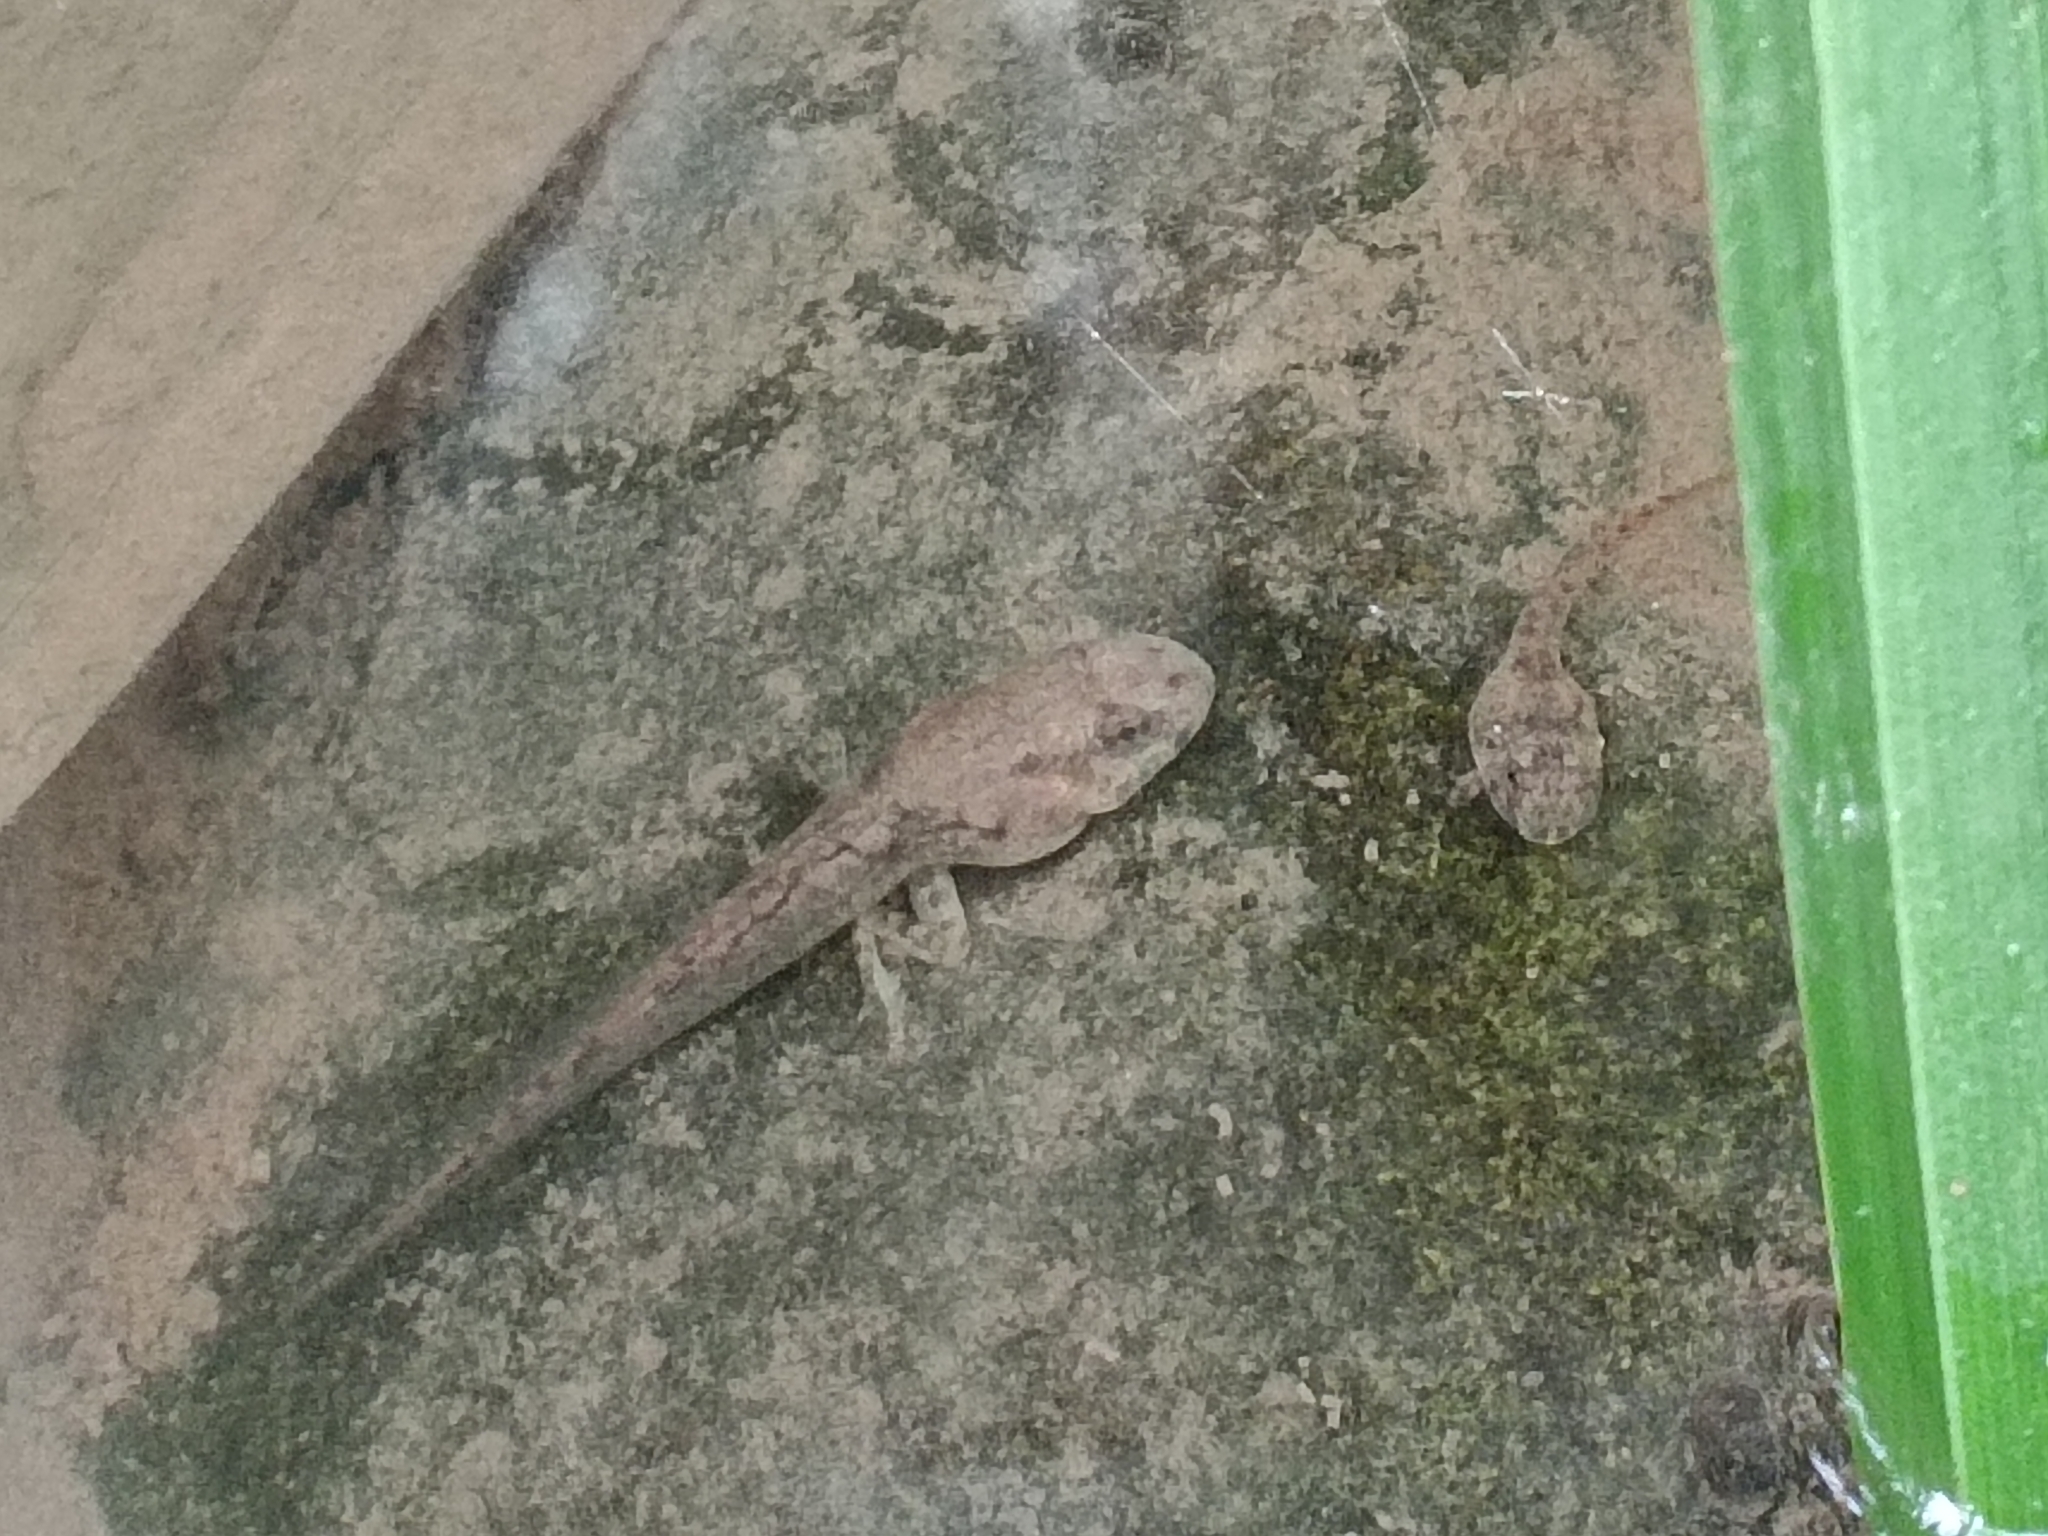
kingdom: Animalia
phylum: Chordata
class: Amphibia
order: Anura
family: Pyxicephalidae
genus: Amietia
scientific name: Amietia delalandii
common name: Delalande's river frog
